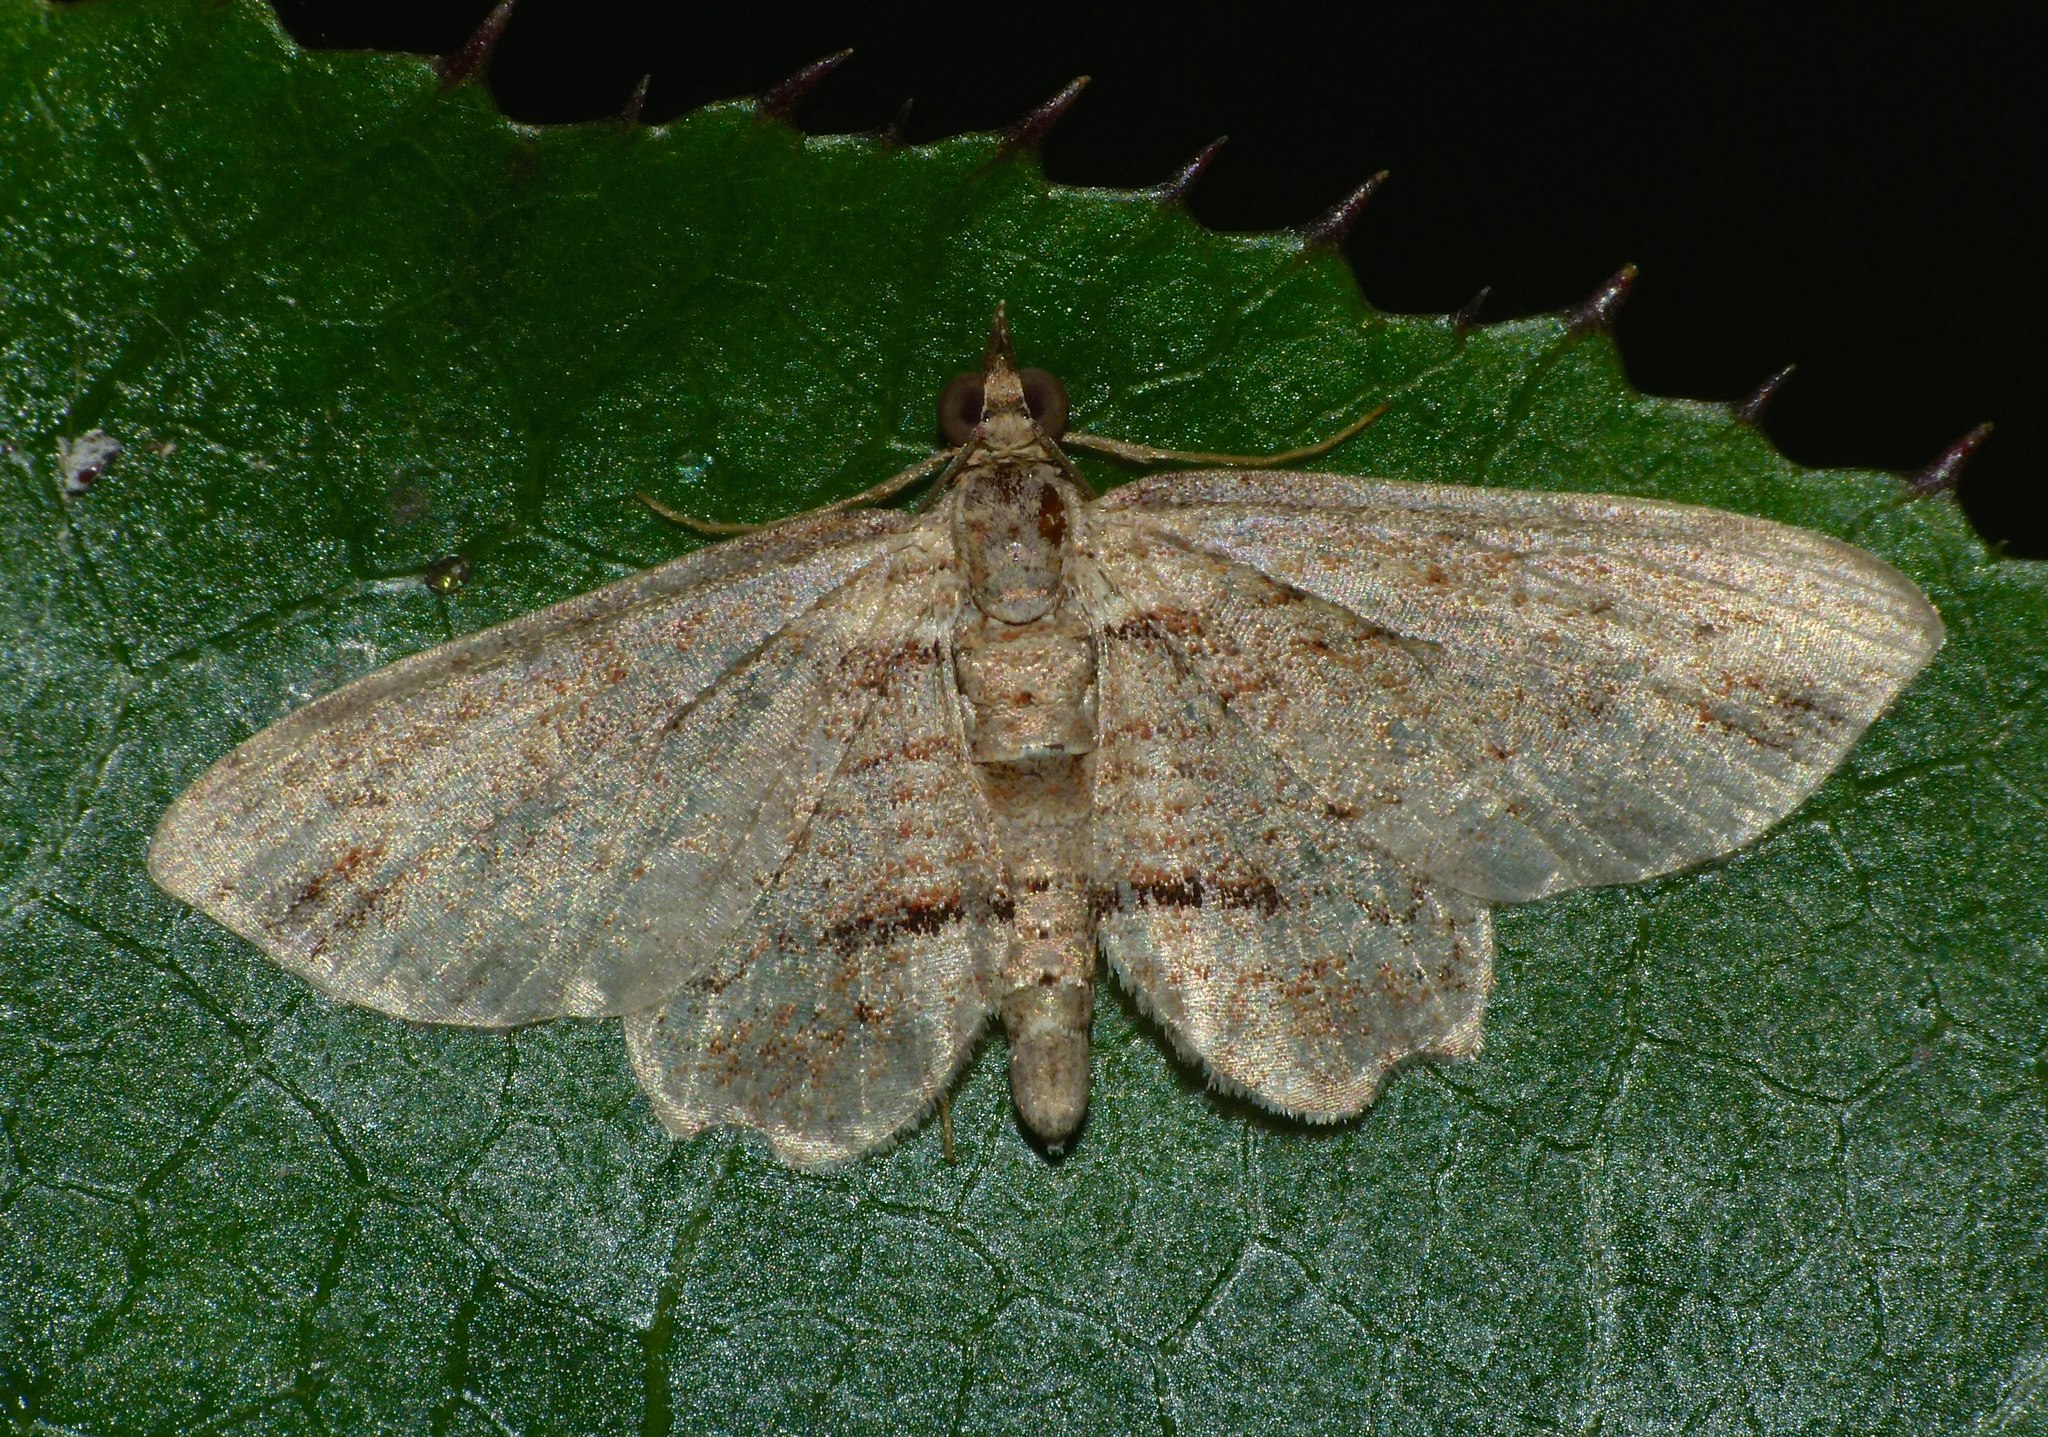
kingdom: Animalia
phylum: Arthropoda
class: Insecta
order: Lepidoptera
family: Geometridae
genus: Chloroclystis
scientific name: Chloroclystis filata
